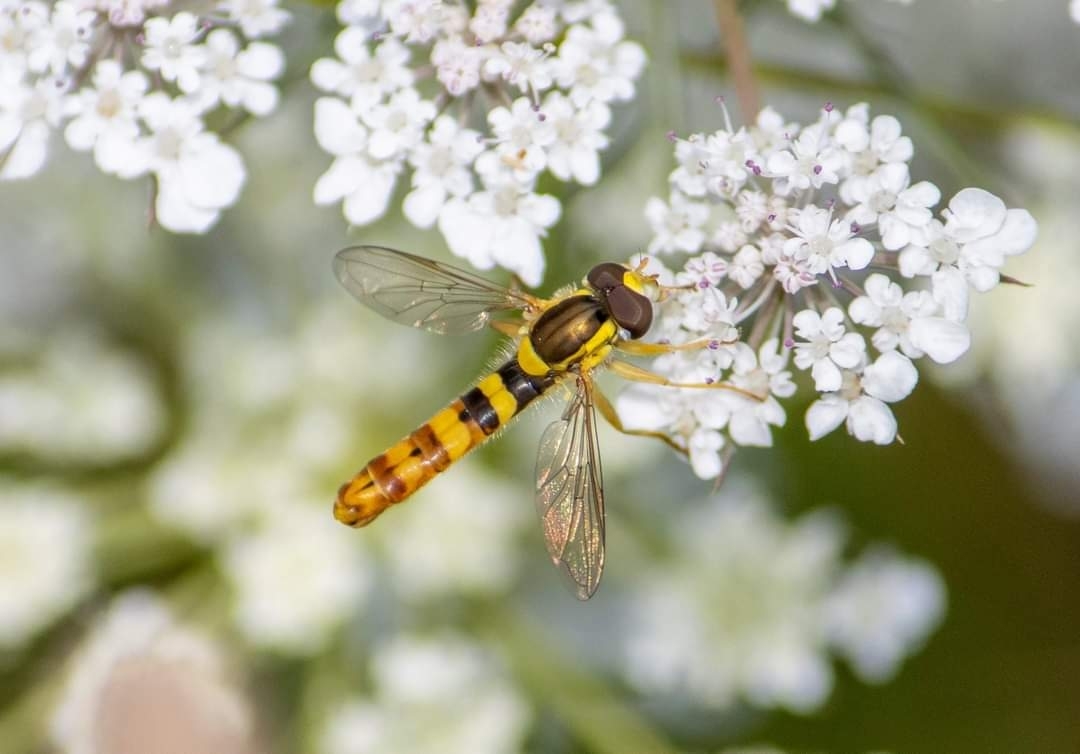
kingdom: Animalia
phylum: Arthropoda
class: Insecta
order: Diptera
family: Syrphidae
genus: Sphaerophoria
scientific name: Sphaerophoria scripta
